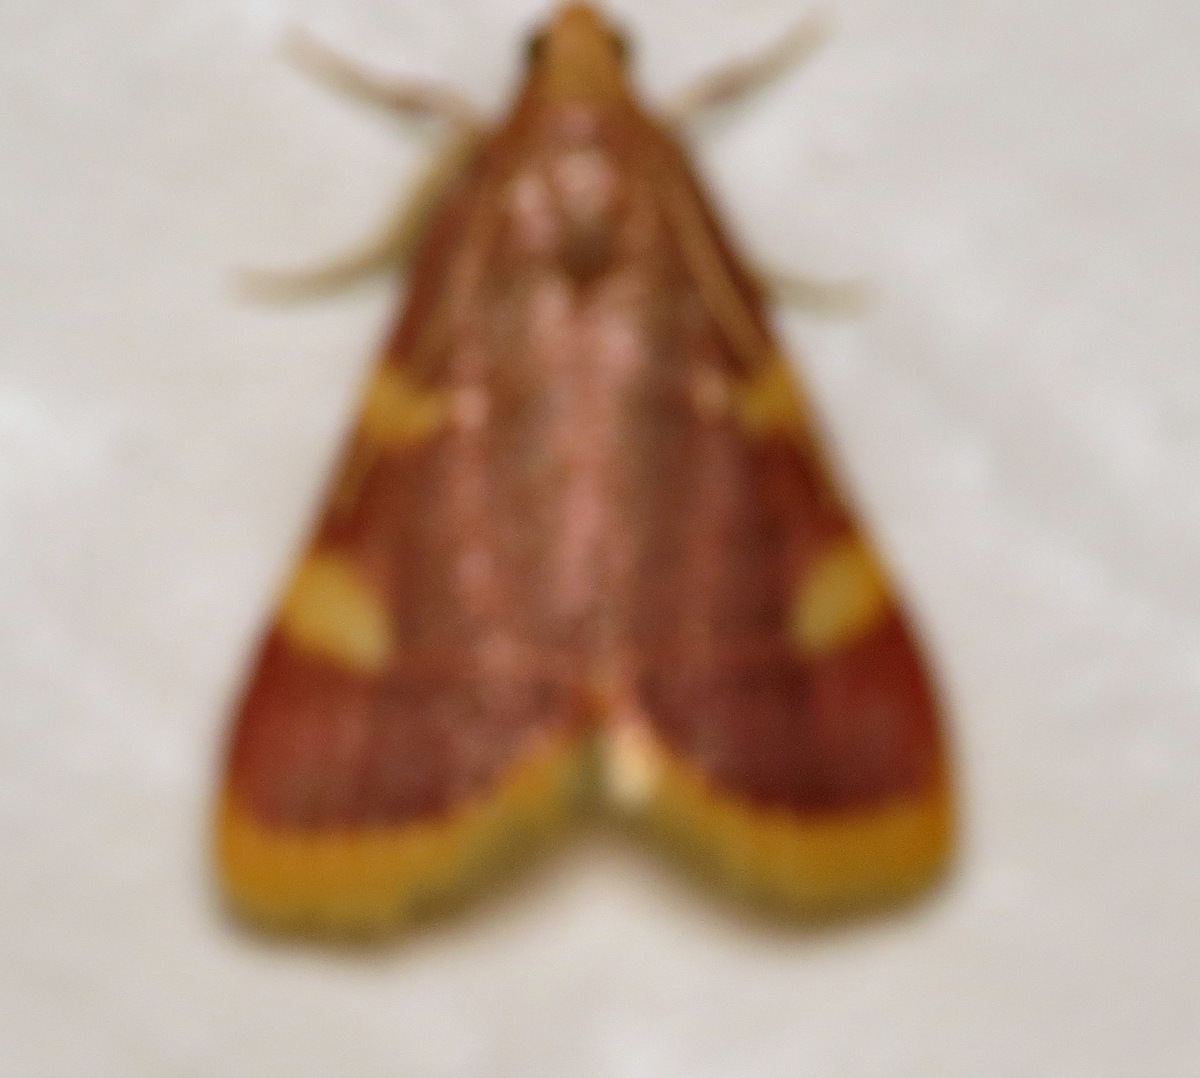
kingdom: Animalia
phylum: Arthropoda
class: Insecta
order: Lepidoptera
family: Pyralidae
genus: Hypsopygia
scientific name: Hypsopygia costalis
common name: Gold triangle
